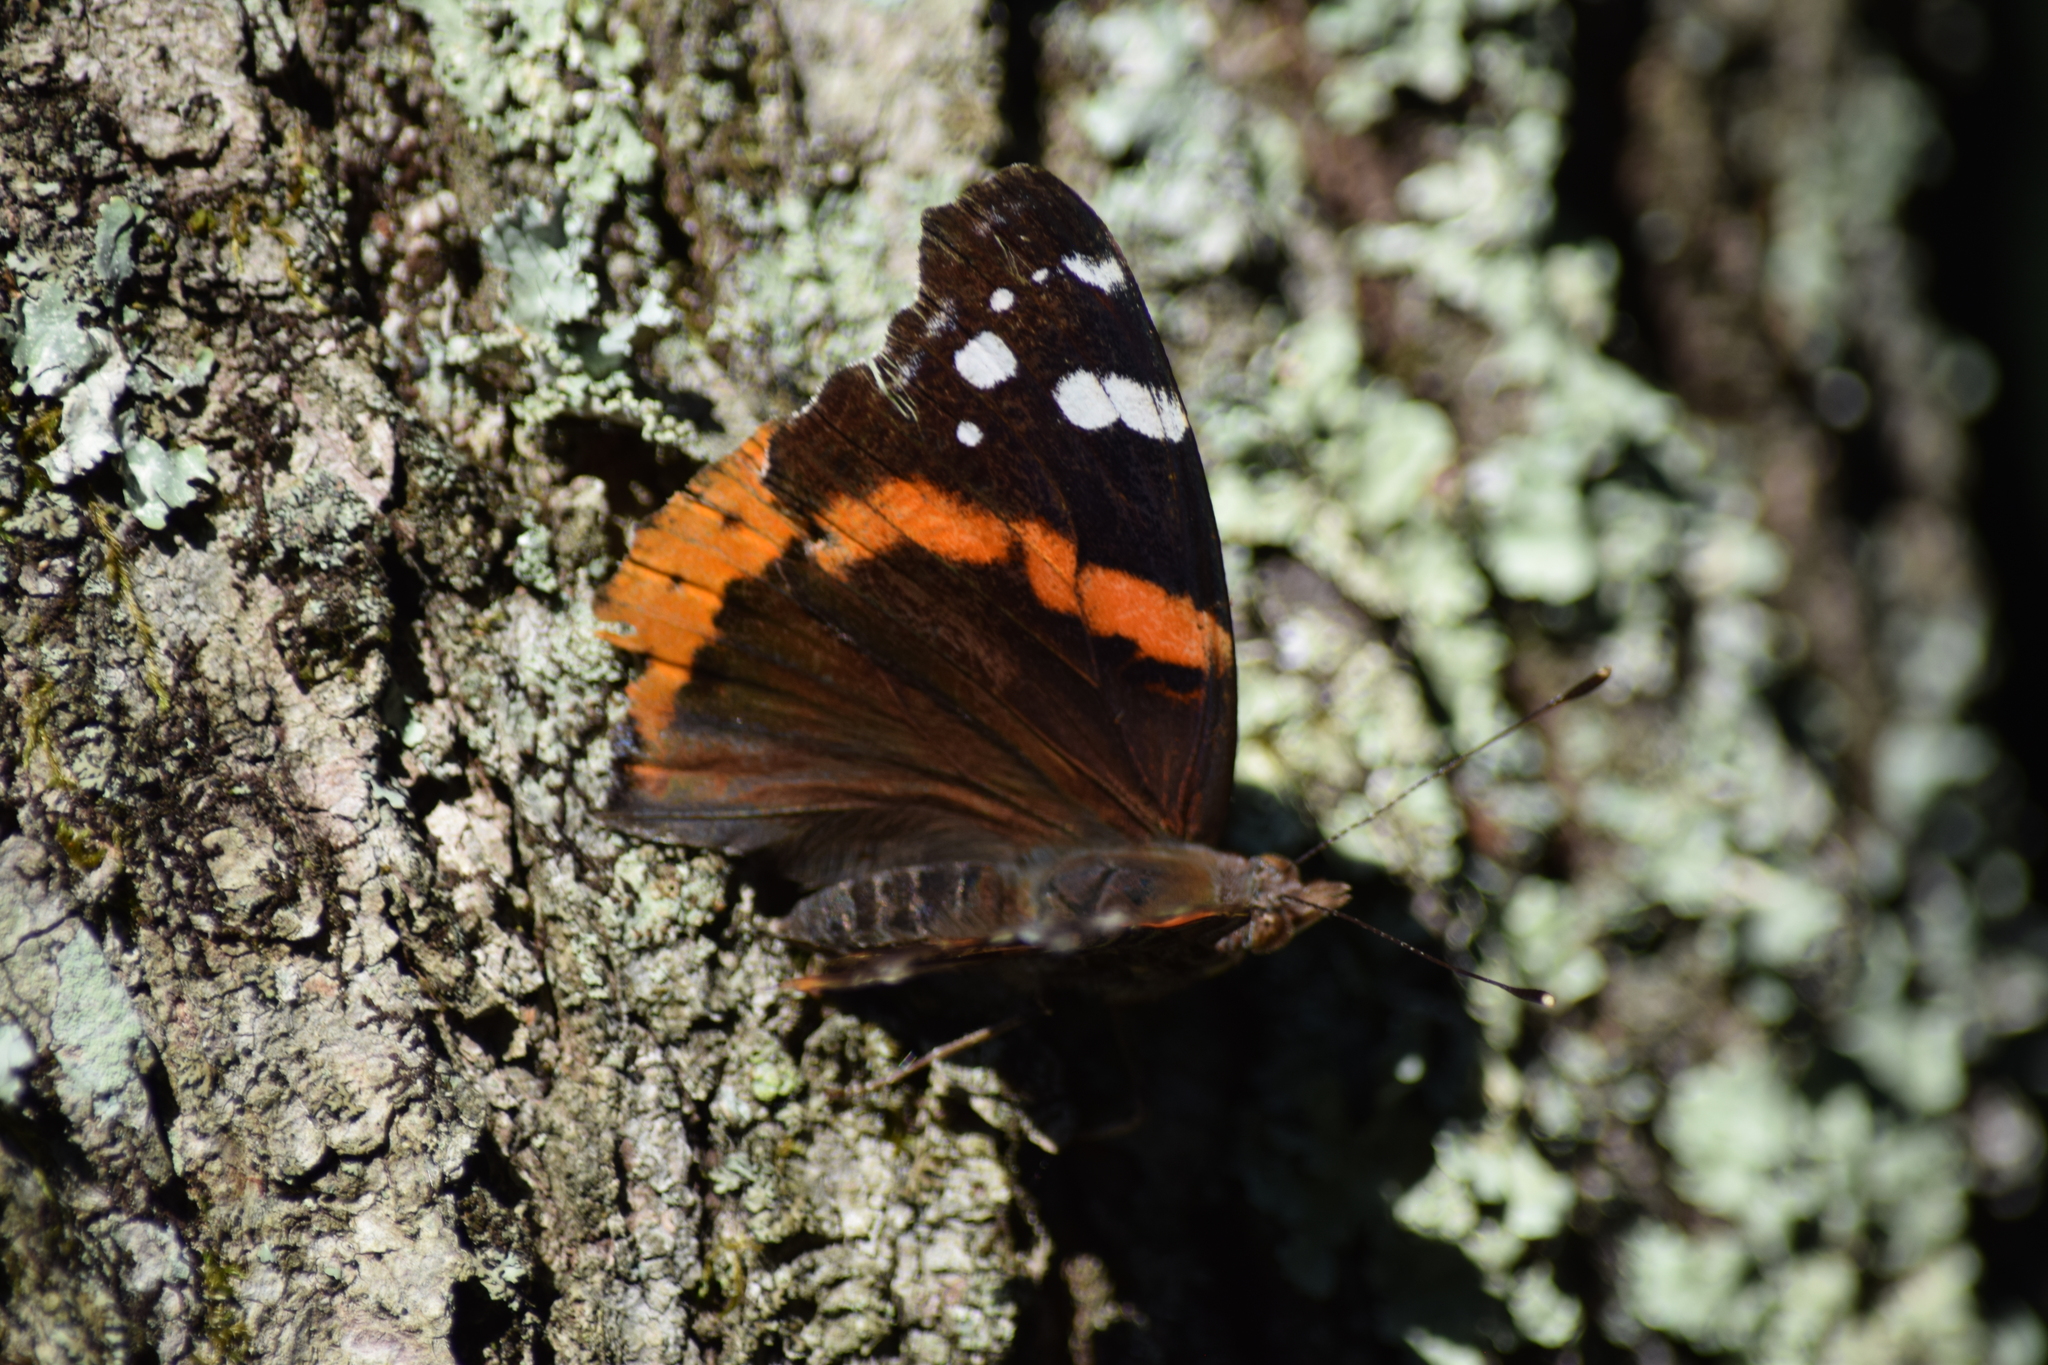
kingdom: Animalia
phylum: Arthropoda
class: Insecta
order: Lepidoptera
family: Nymphalidae
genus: Vanessa
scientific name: Vanessa atalanta
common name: Red admiral
